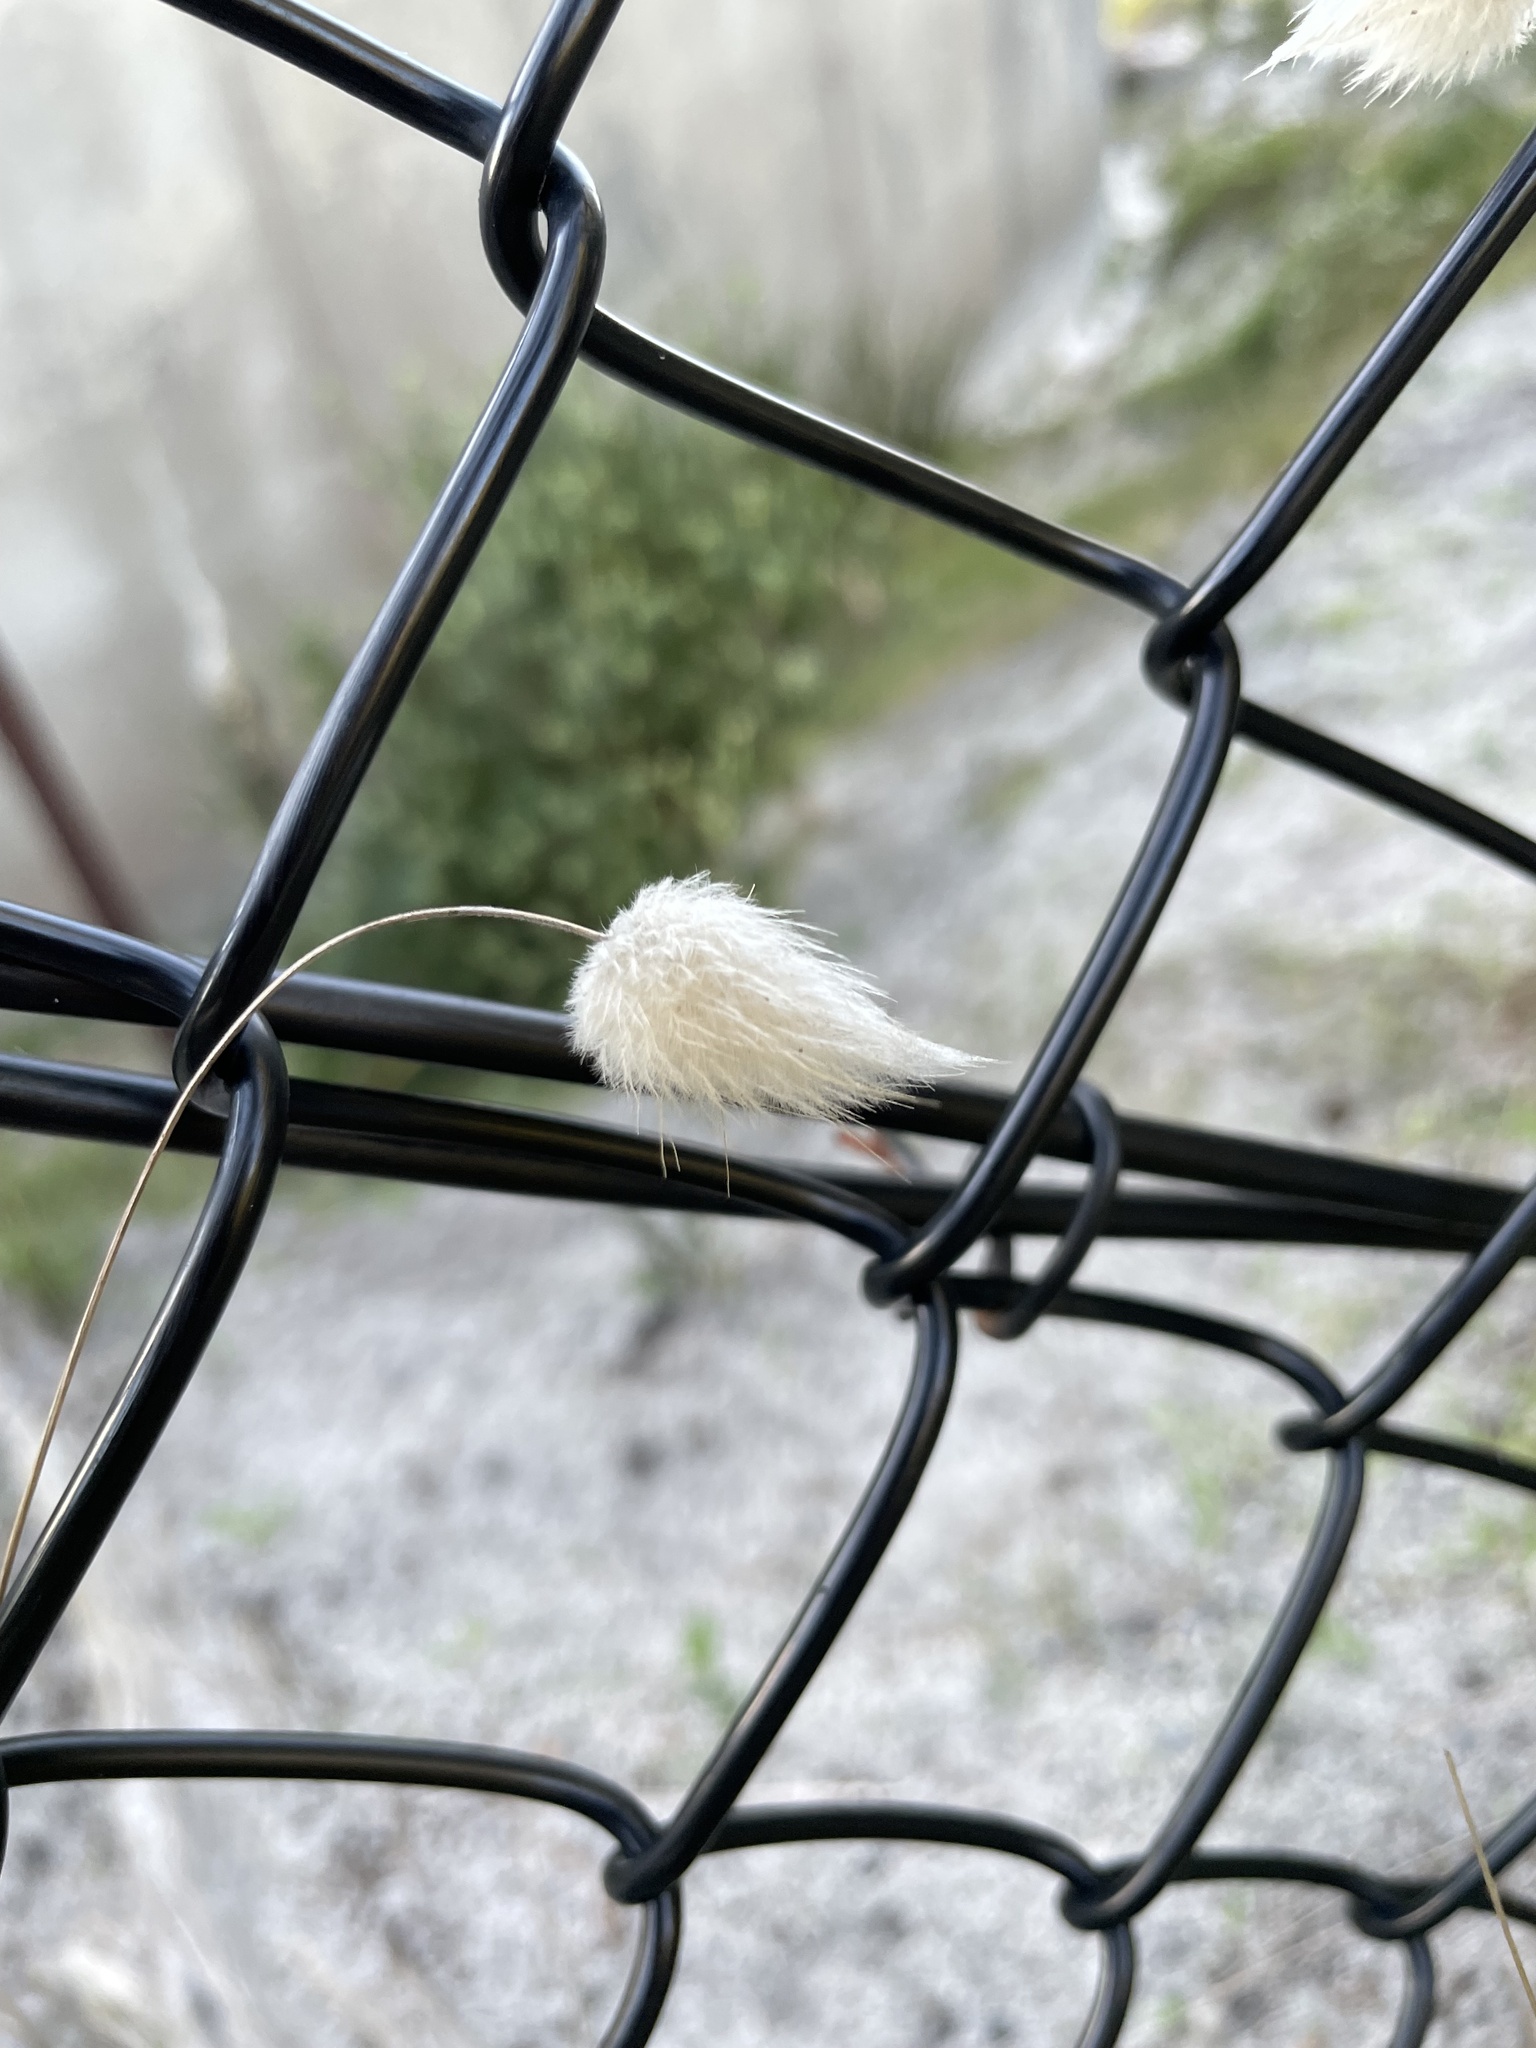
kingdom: Plantae
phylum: Tracheophyta
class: Liliopsida
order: Poales
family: Poaceae
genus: Lagurus
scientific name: Lagurus ovatus
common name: Hare's-tail
